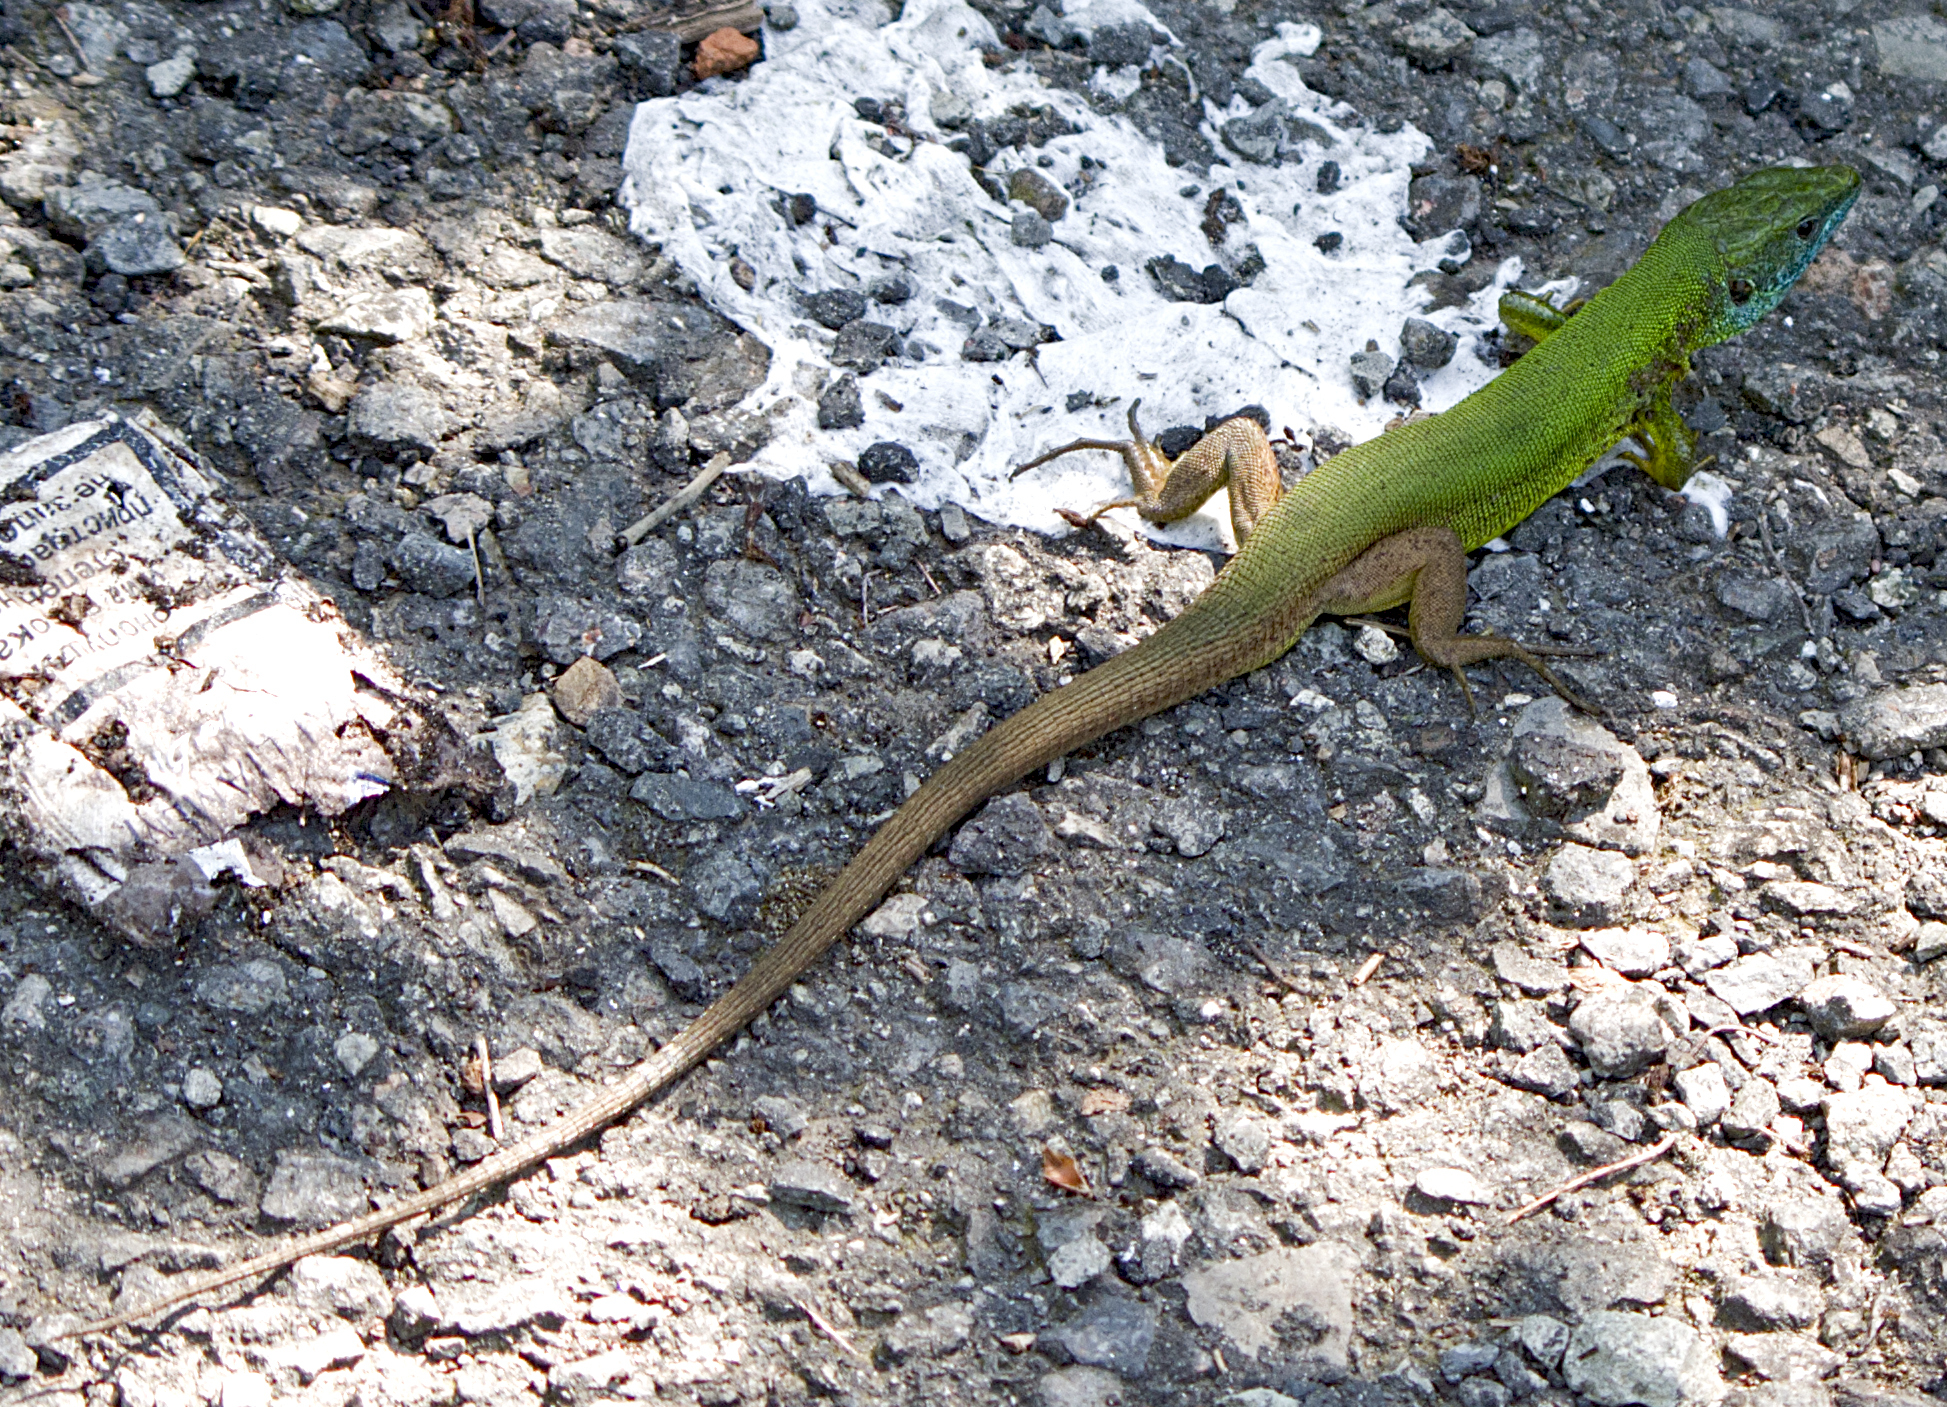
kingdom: Animalia
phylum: Chordata
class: Squamata
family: Lacertidae
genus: Lacerta
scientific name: Lacerta viridis
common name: European green lizard
